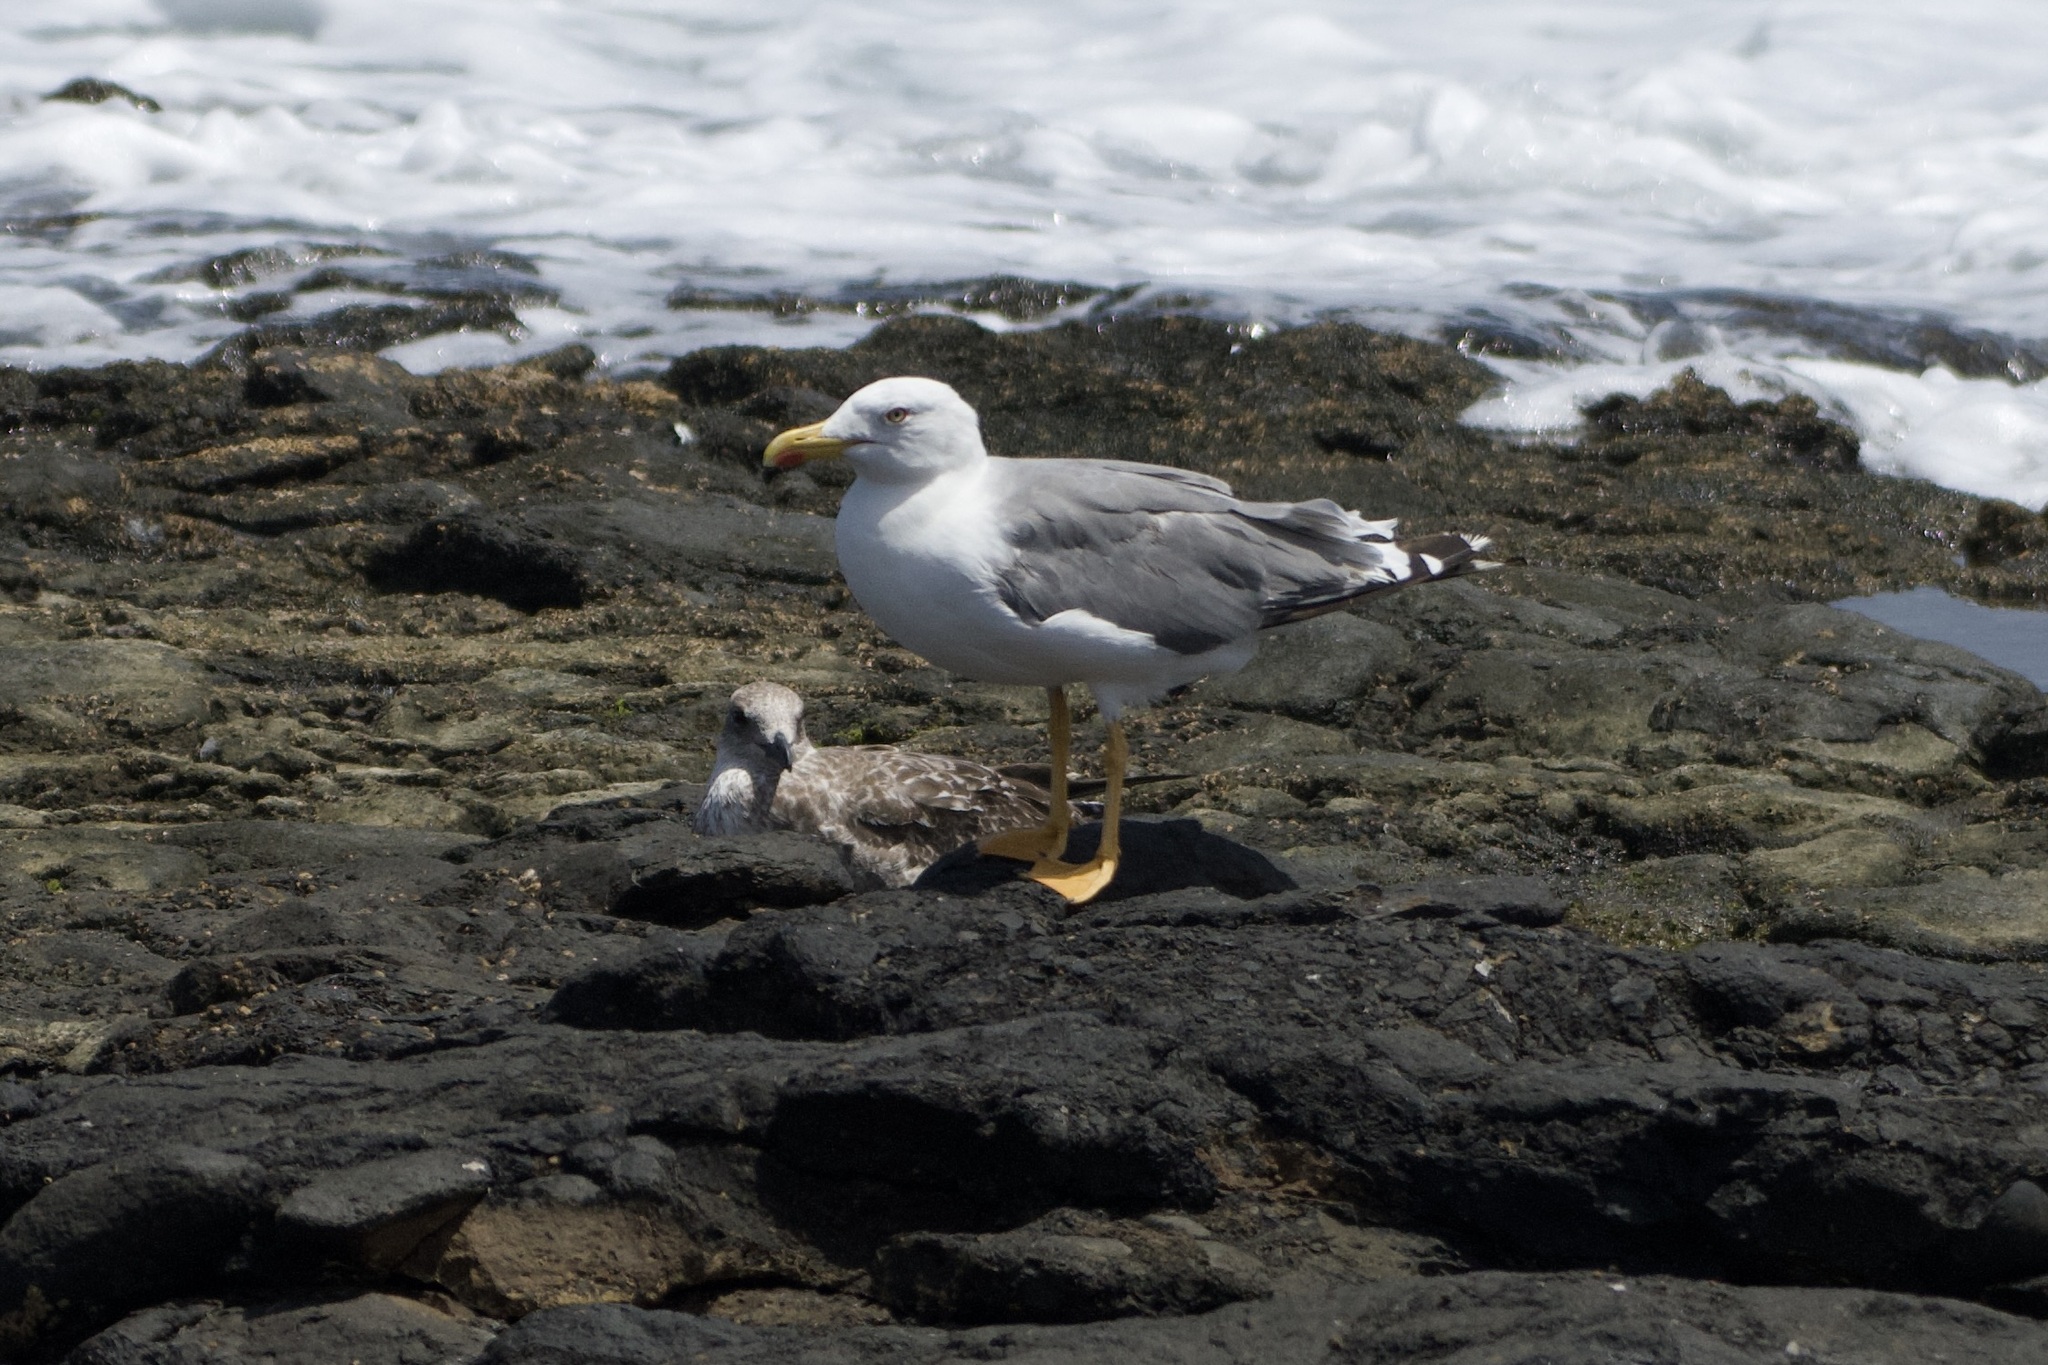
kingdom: Animalia
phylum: Chordata
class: Aves
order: Charadriiformes
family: Laridae
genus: Larus
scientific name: Larus michahellis
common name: Yellow-legged gull
